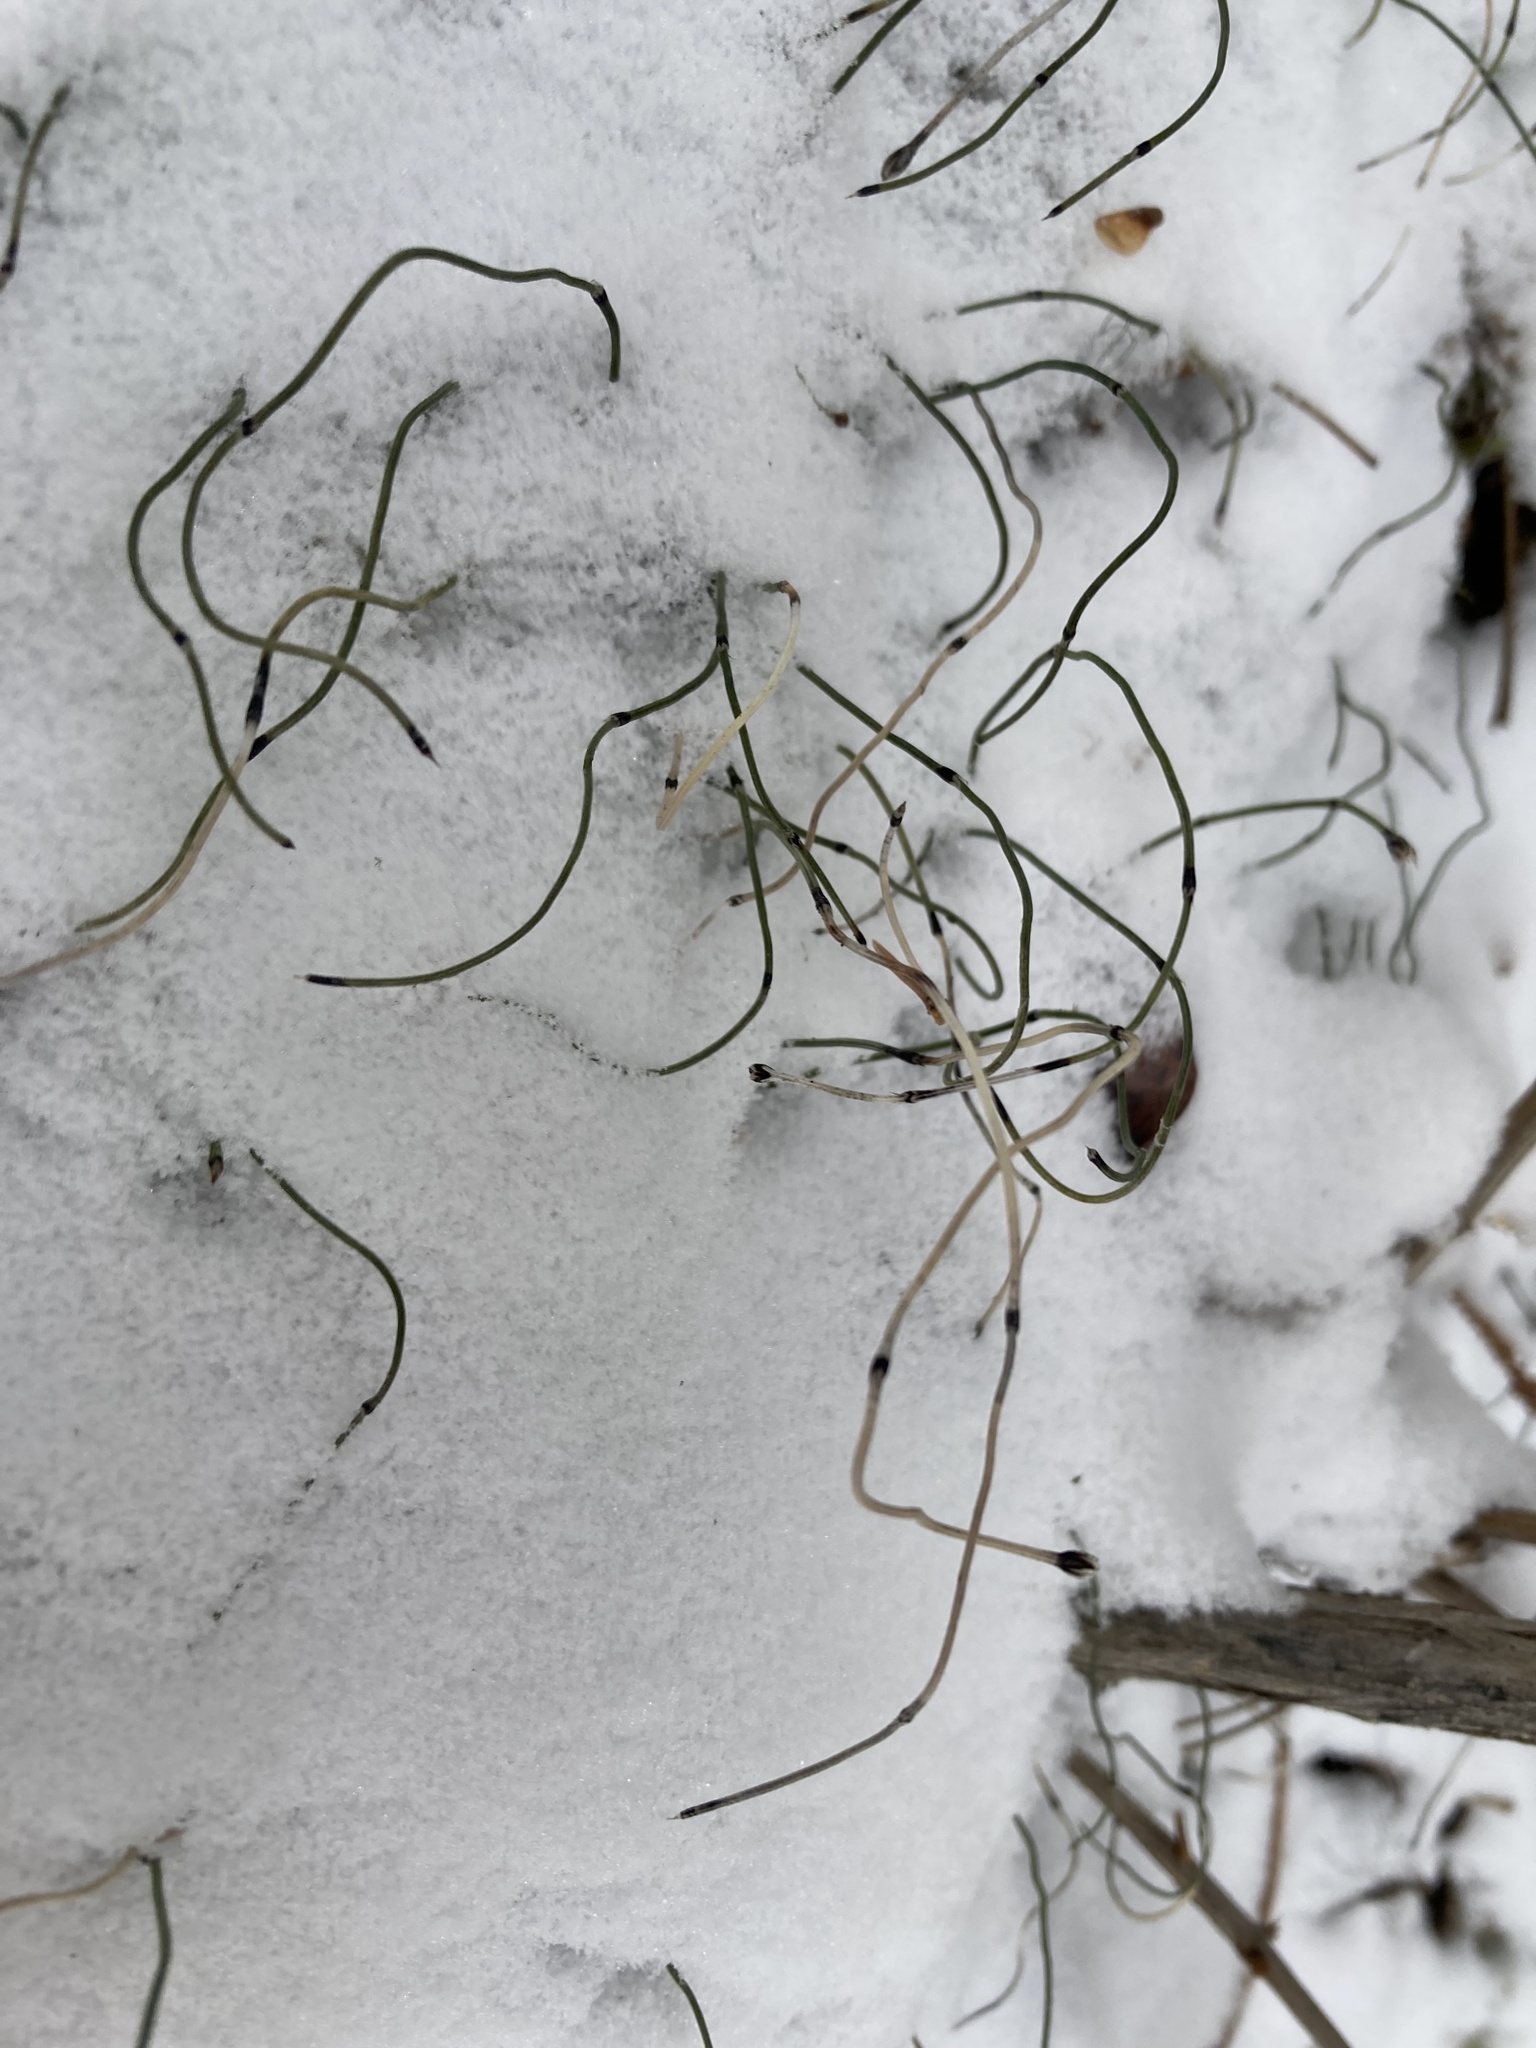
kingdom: Plantae
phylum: Tracheophyta
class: Polypodiopsida
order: Equisetales
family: Equisetaceae
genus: Equisetum
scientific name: Equisetum scirpoides
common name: Delicate horsetail
